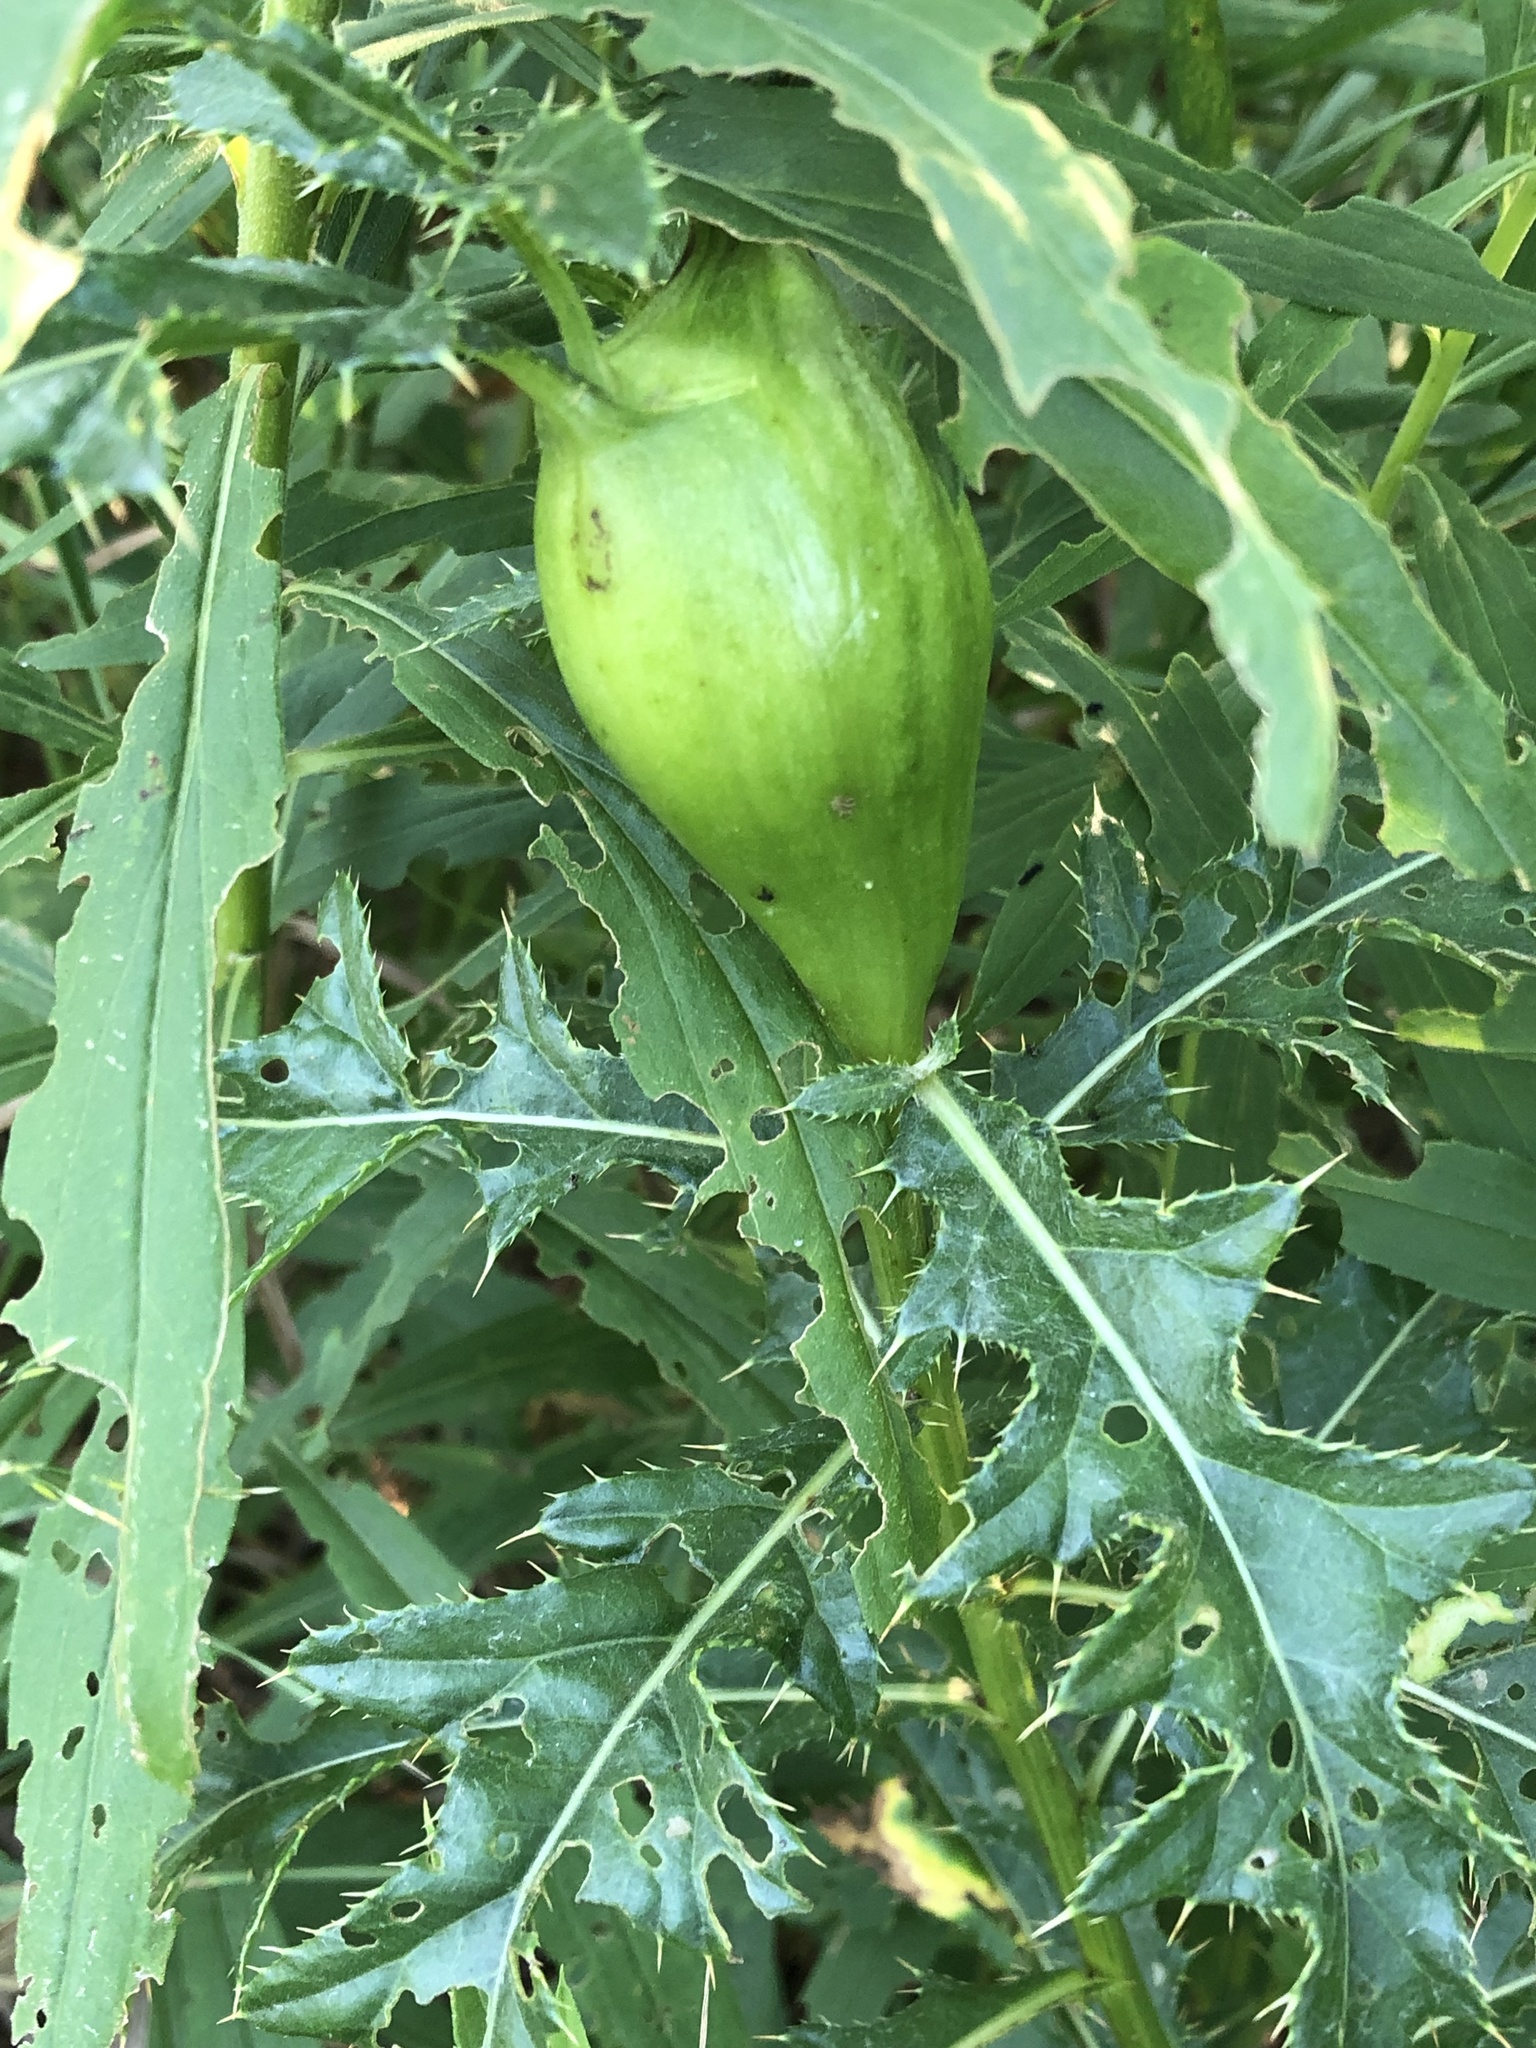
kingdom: Animalia
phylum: Arthropoda
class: Insecta
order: Diptera
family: Tephritidae
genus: Urophora
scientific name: Urophora cardui
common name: Fruit fly
